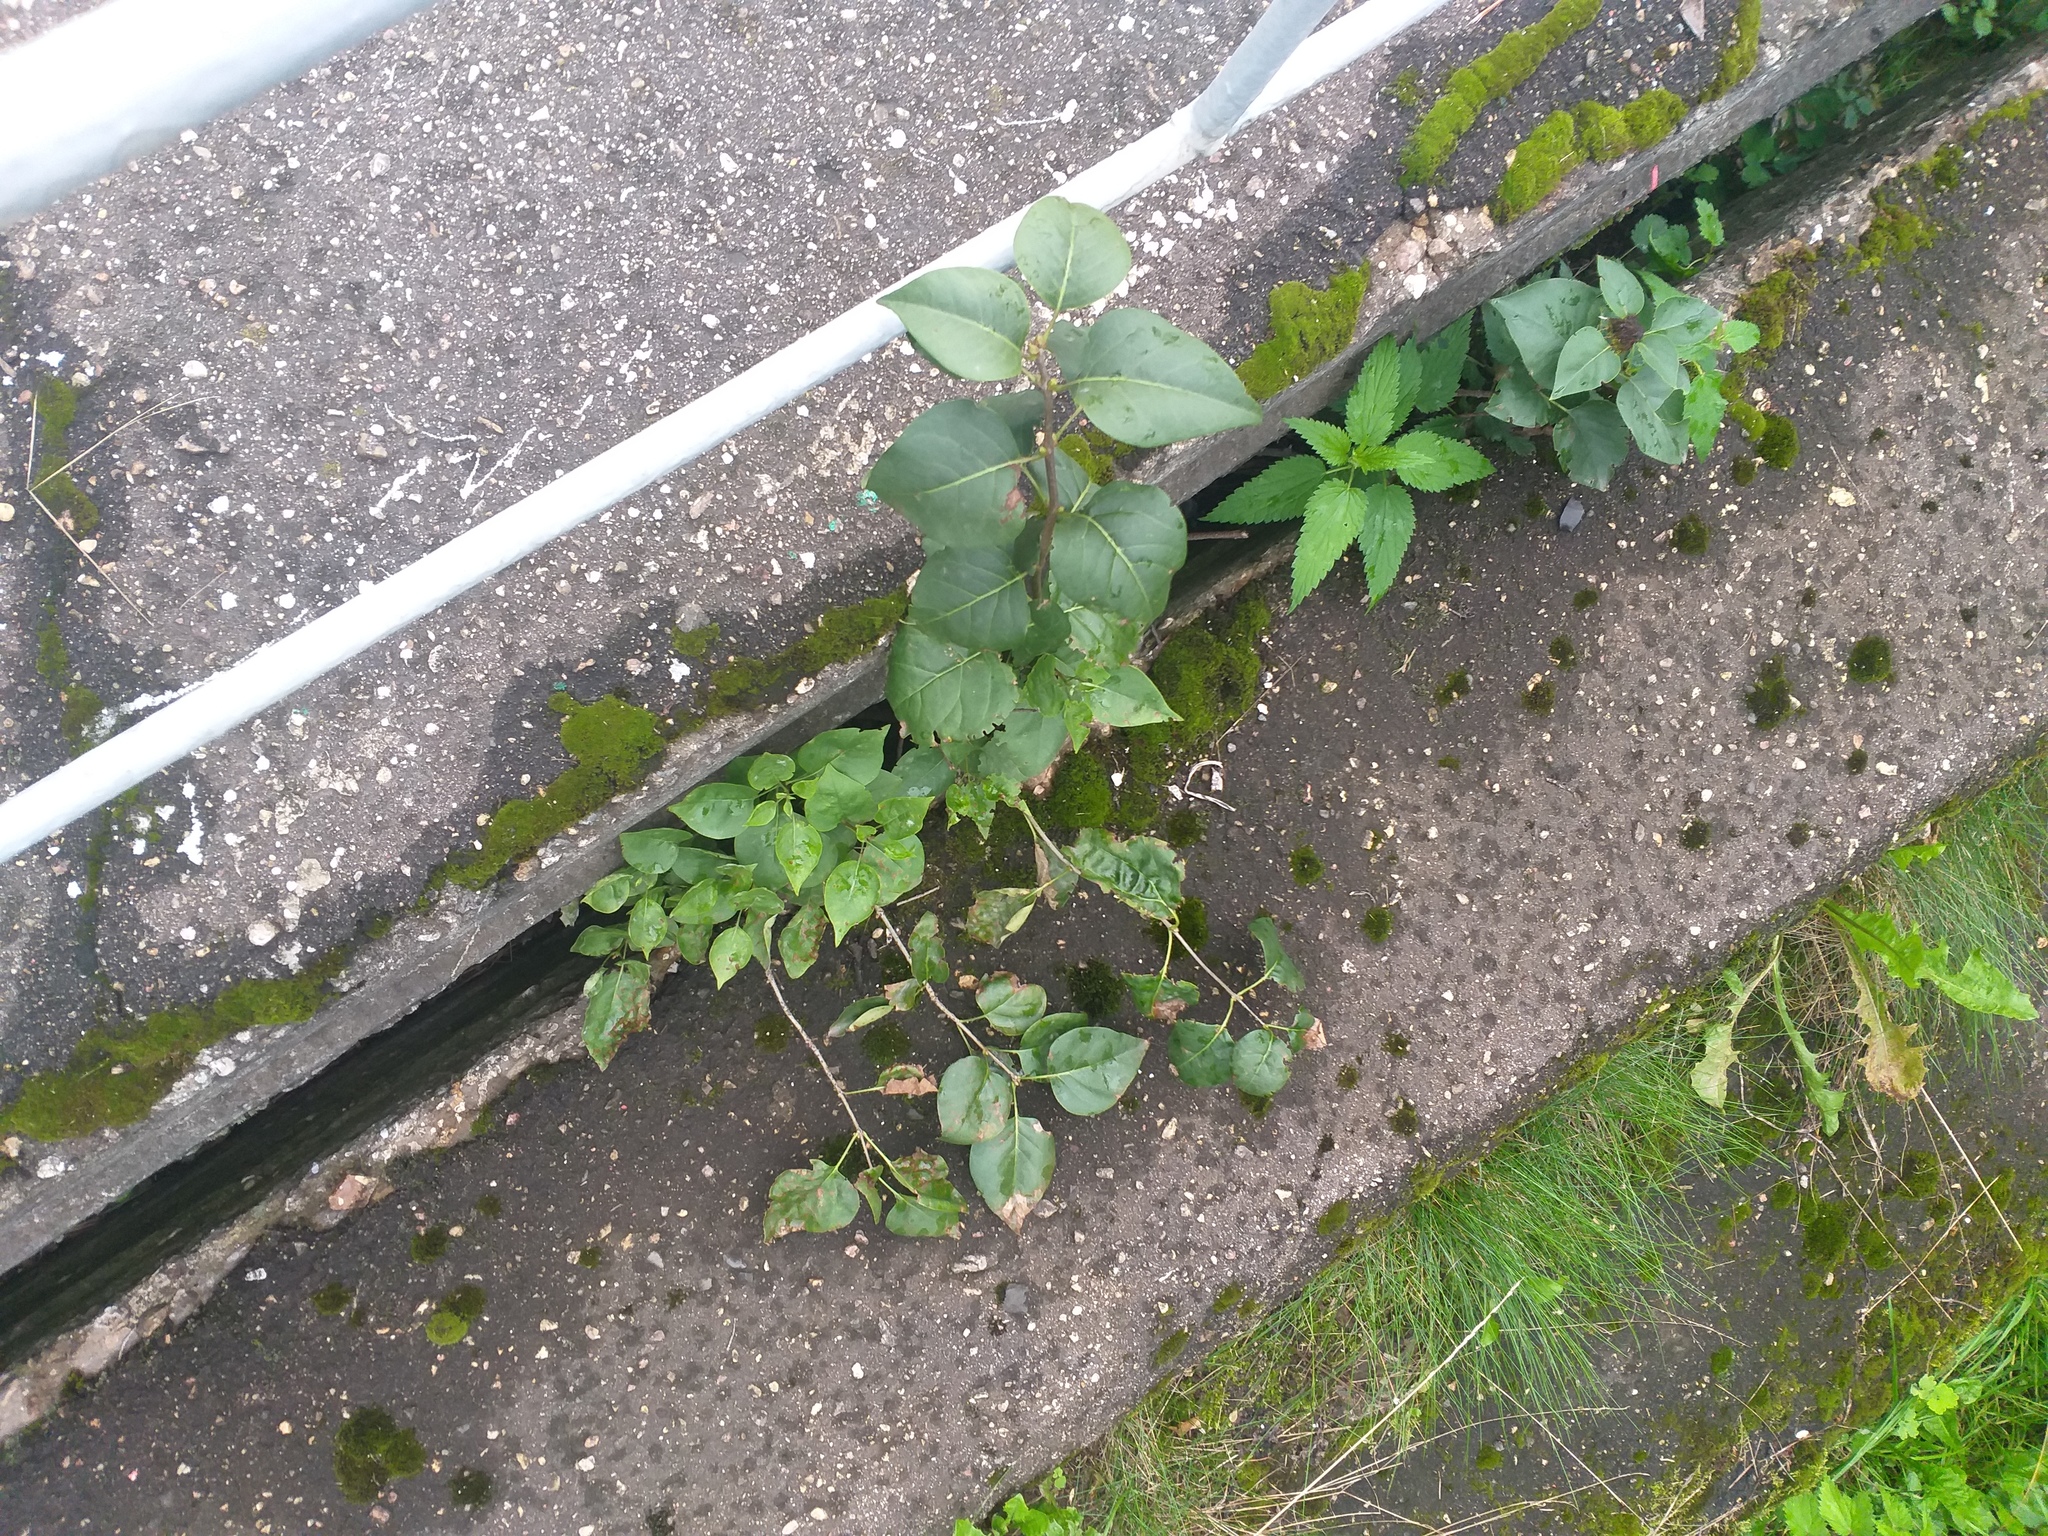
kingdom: Plantae
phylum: Tracheophyta
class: Magnoliopsida
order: Lamiales
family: Oleaceae
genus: Syringa
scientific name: Syringa vulgaris
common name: Common lilac
